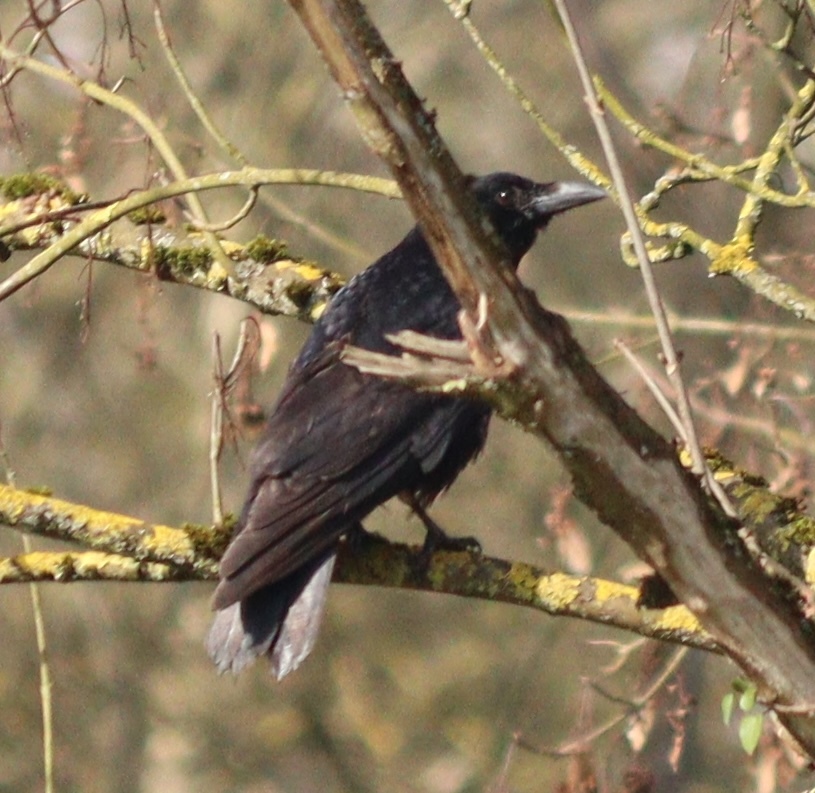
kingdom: Animalia
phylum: Chordata
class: Aves
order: Passeriformes
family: Corvidae
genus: Corvus
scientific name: Corvus corone
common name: Carrion crow
